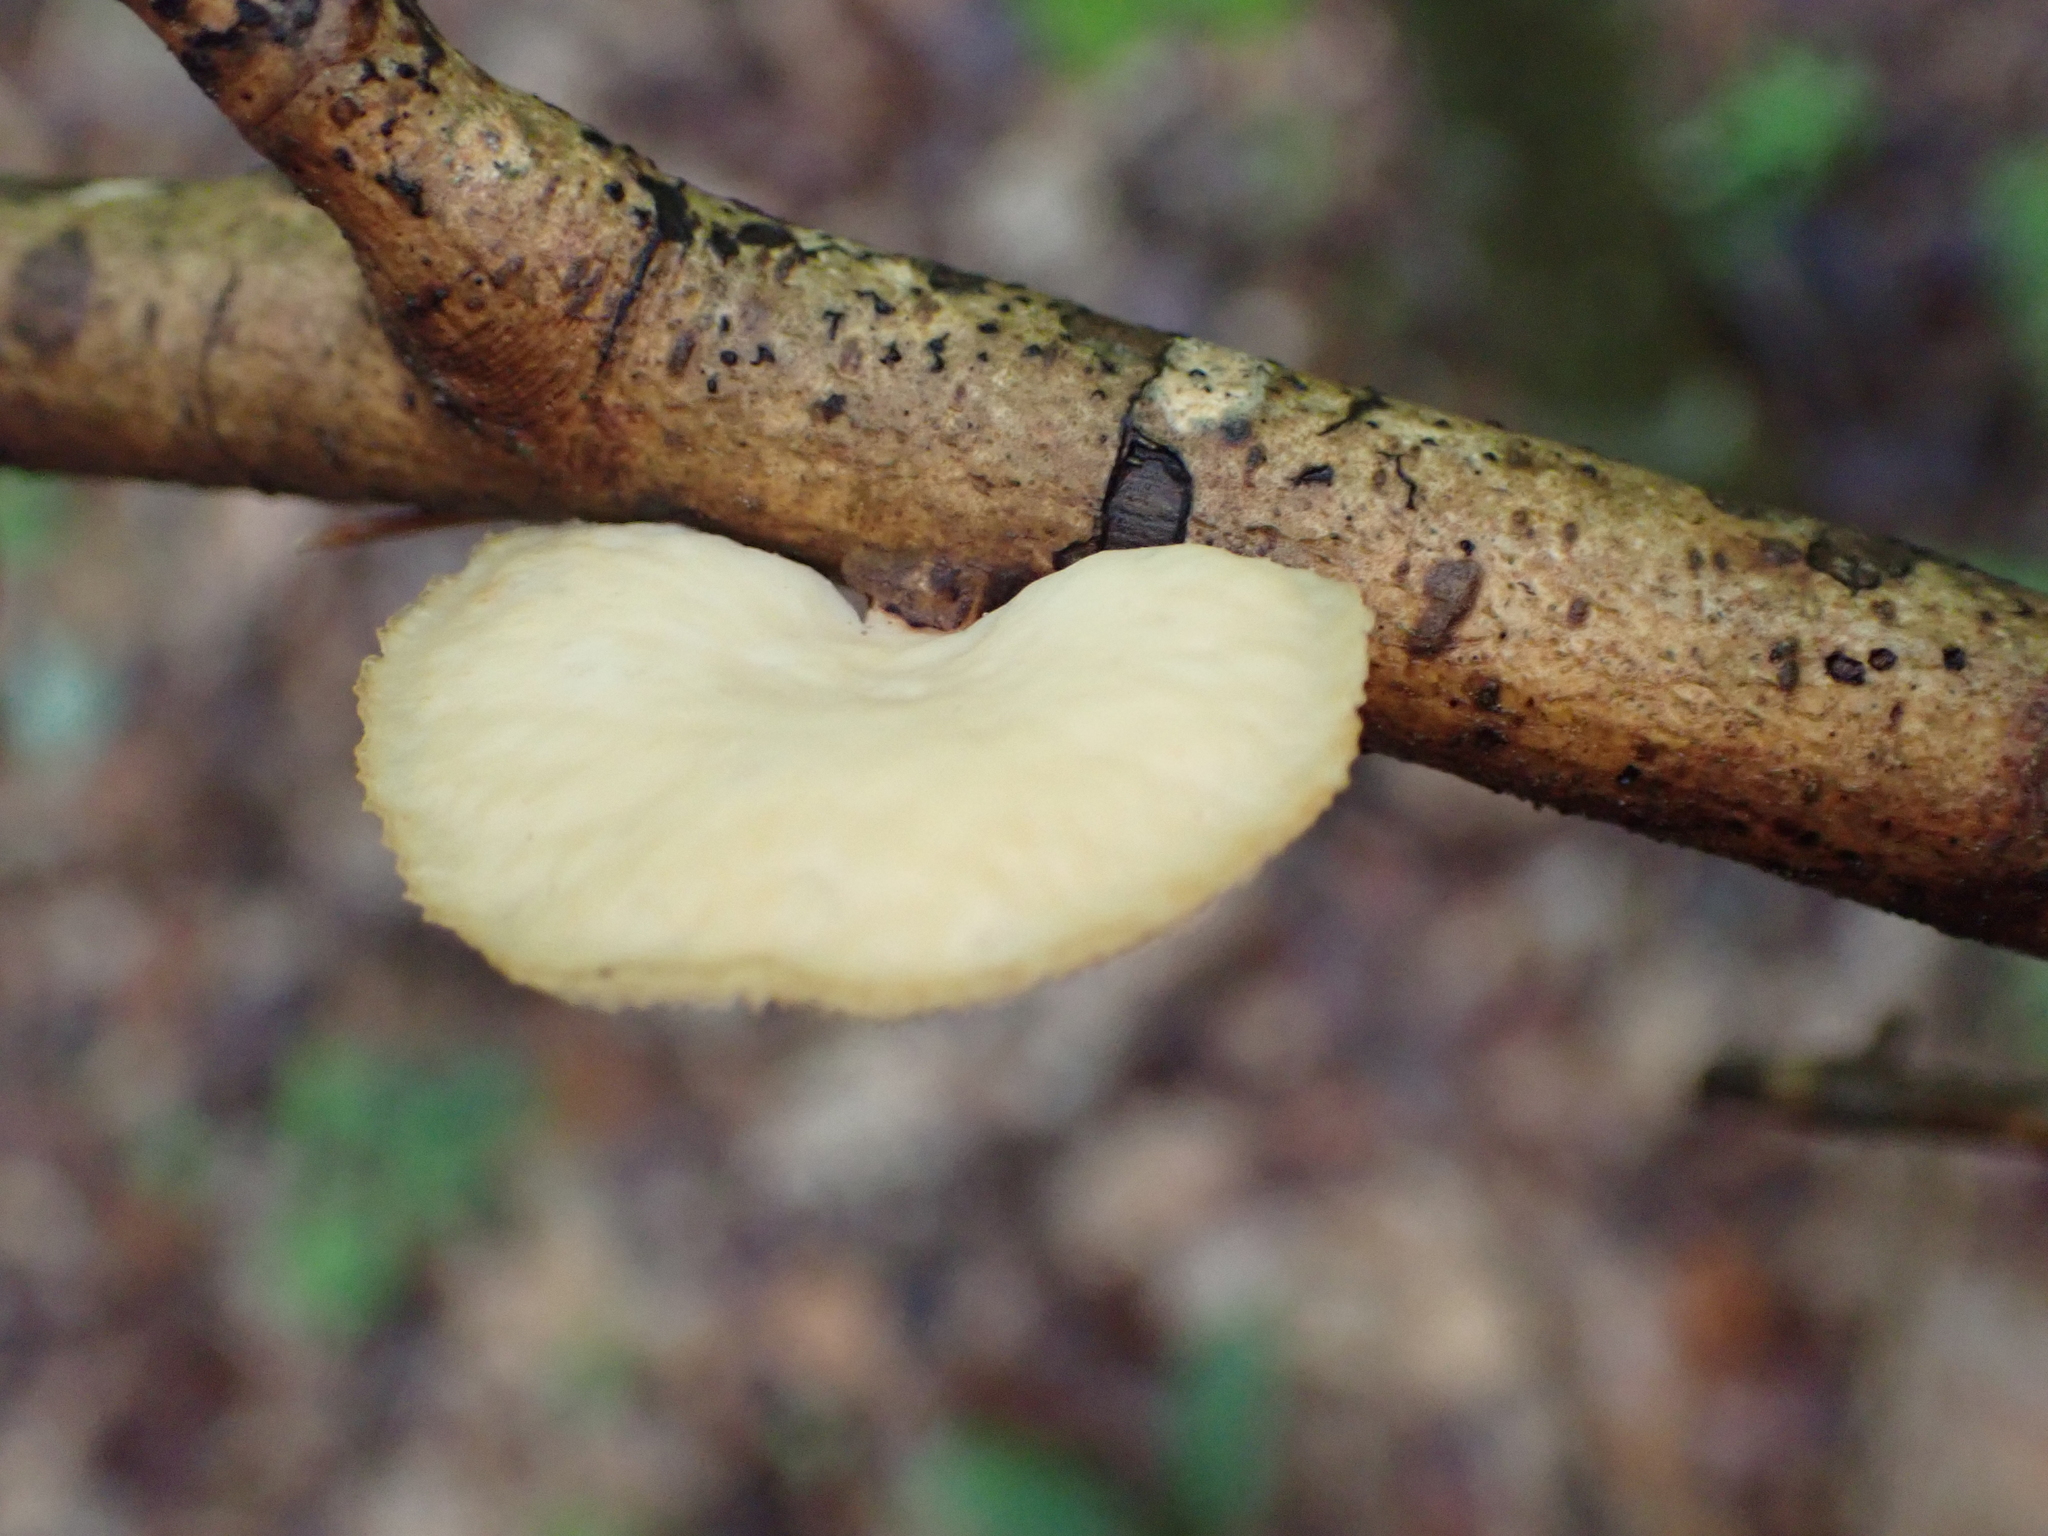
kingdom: Fungi
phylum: Basidiomycota
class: Agaricomycetes
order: Polyporales
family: Polyporaceae
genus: Neofavolus
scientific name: Neofavolus alveolaris
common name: Hexagonal-pored polypore
